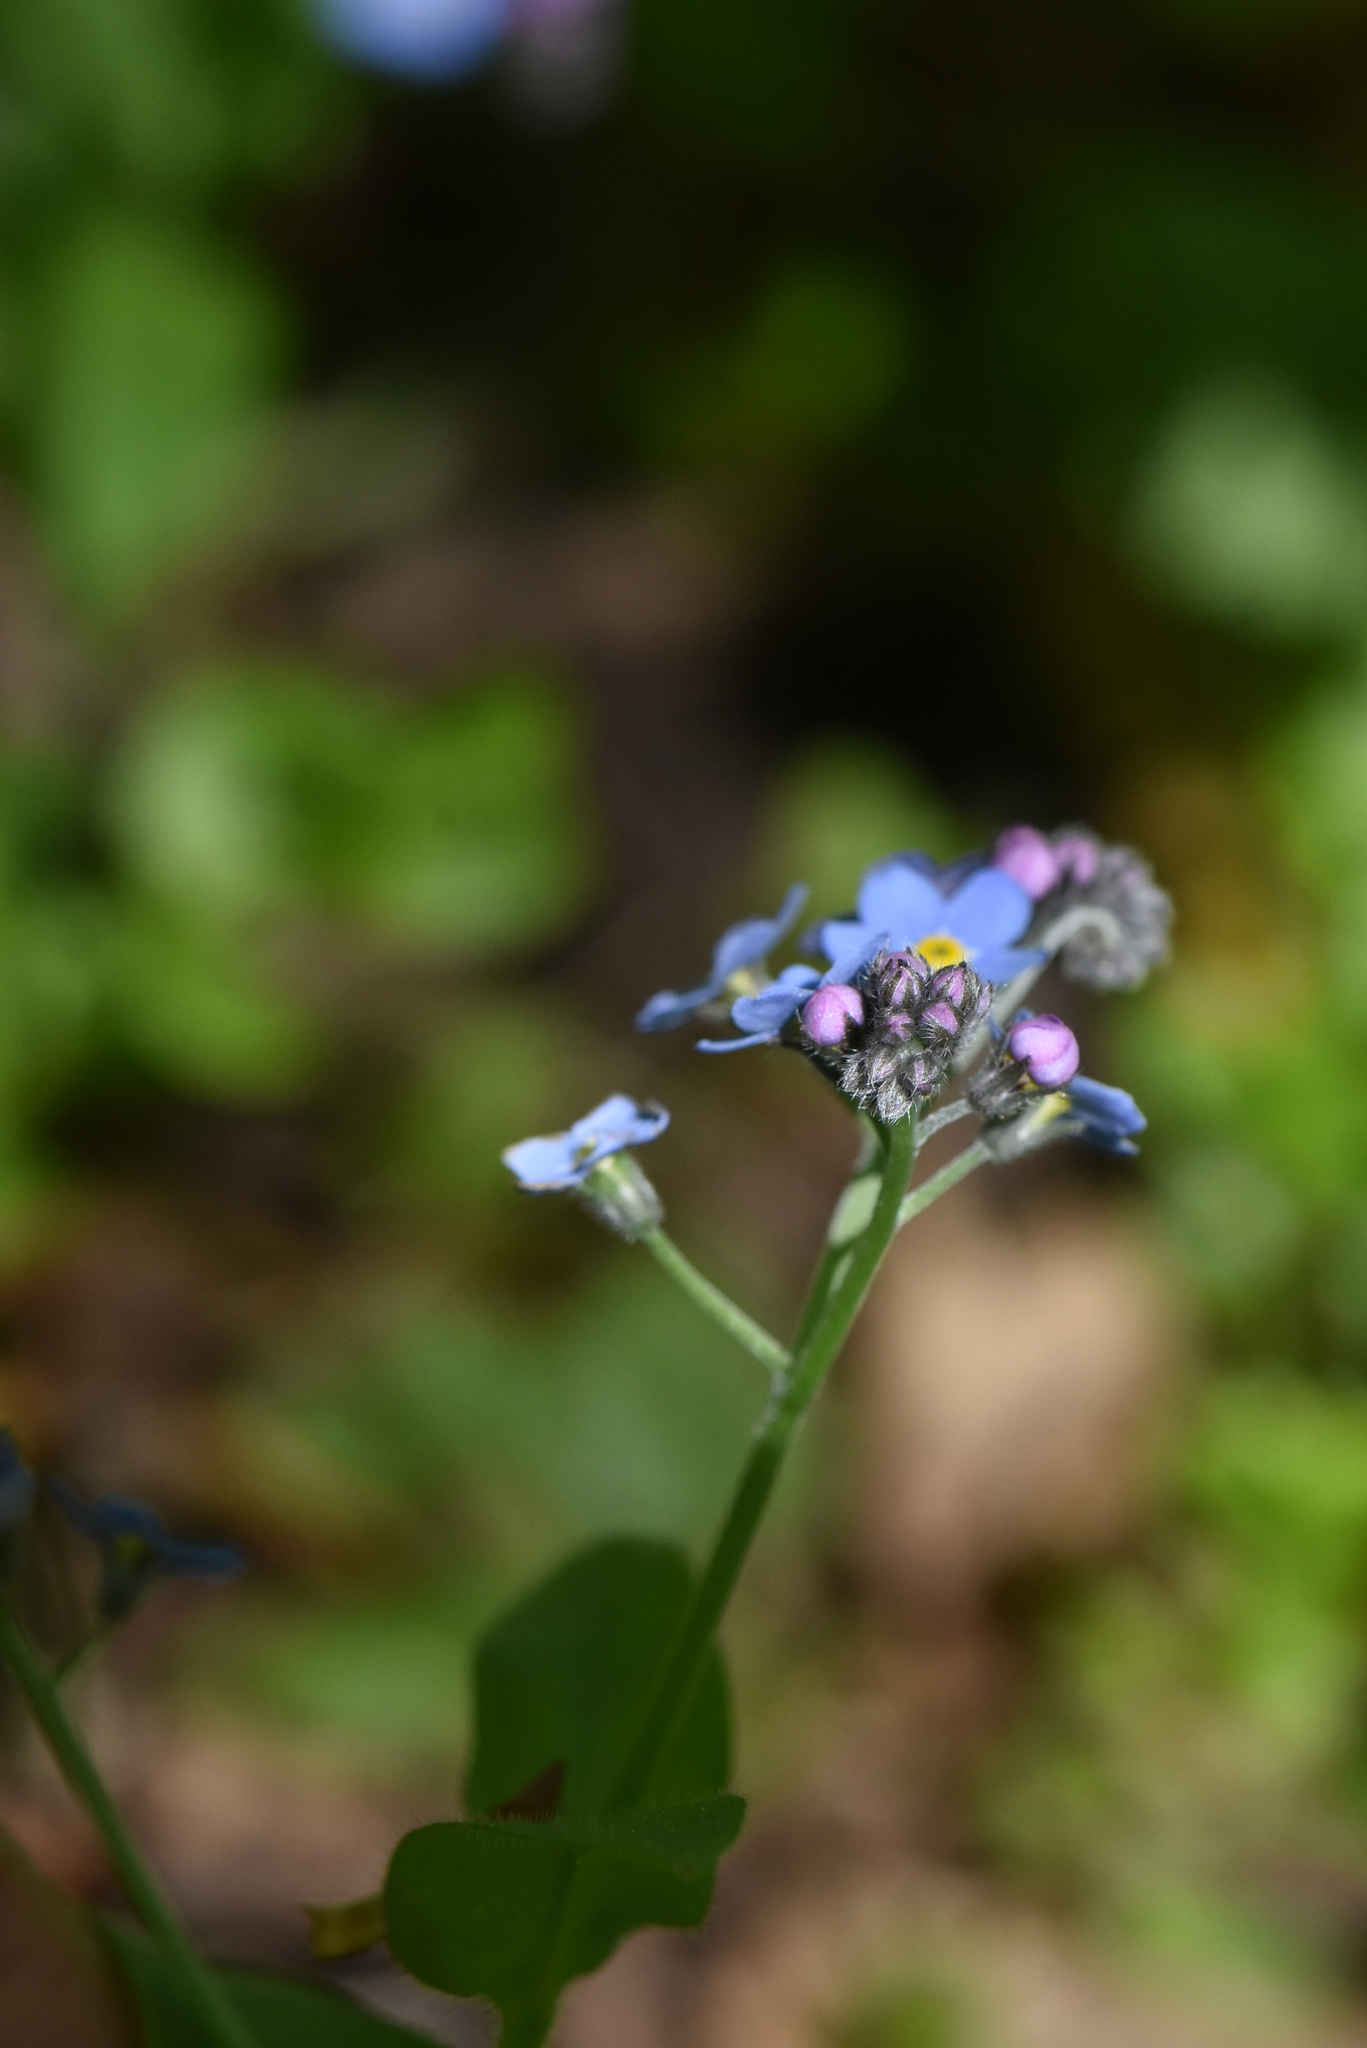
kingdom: Plantae
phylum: Tracheophyta
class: Magnoliopsida
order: Boraginales
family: Boraginaceae
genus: Myosotis
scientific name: Myosotis sylvatica
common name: Wood forget-me-not
